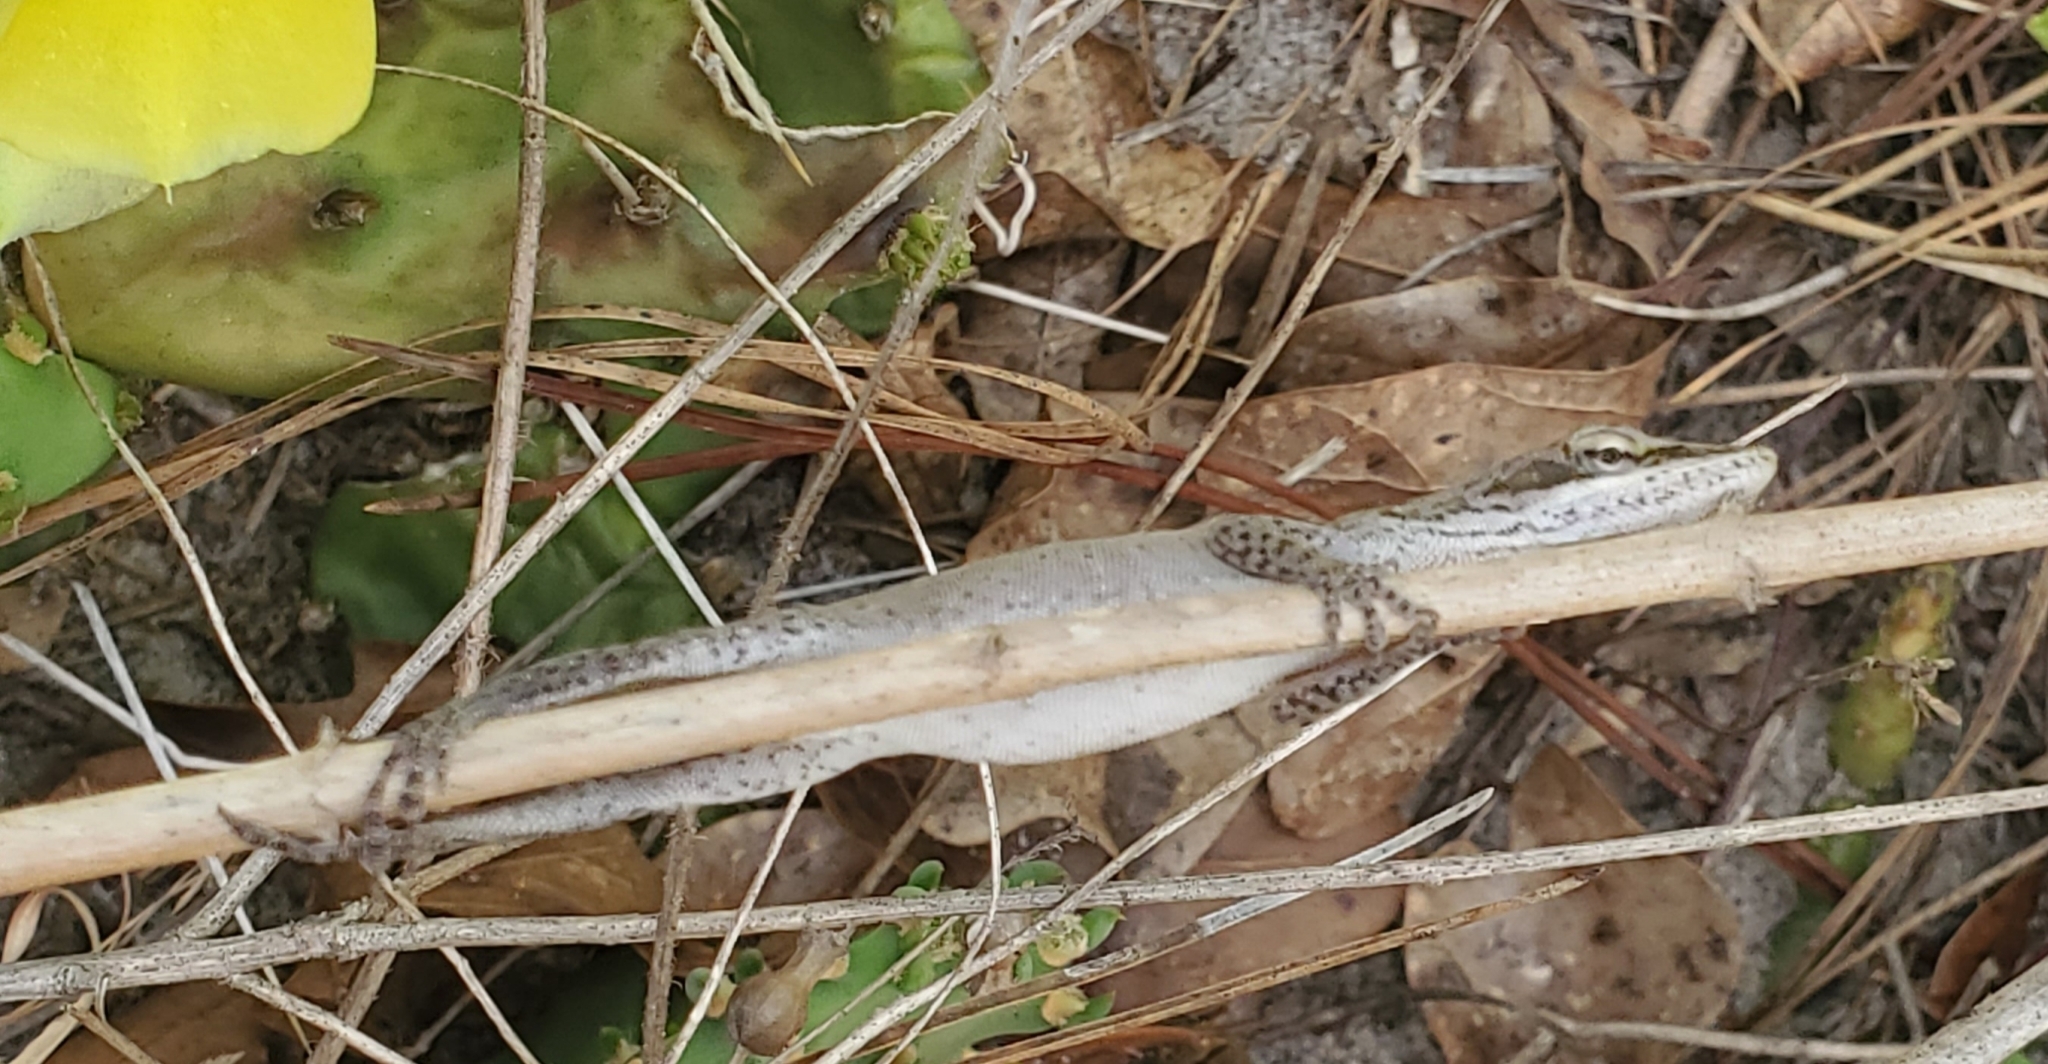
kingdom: Animalia
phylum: Chordata
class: Squamata
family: Dactyloidae
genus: Anolis
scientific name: Anolis carolinensis
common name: Green anole
